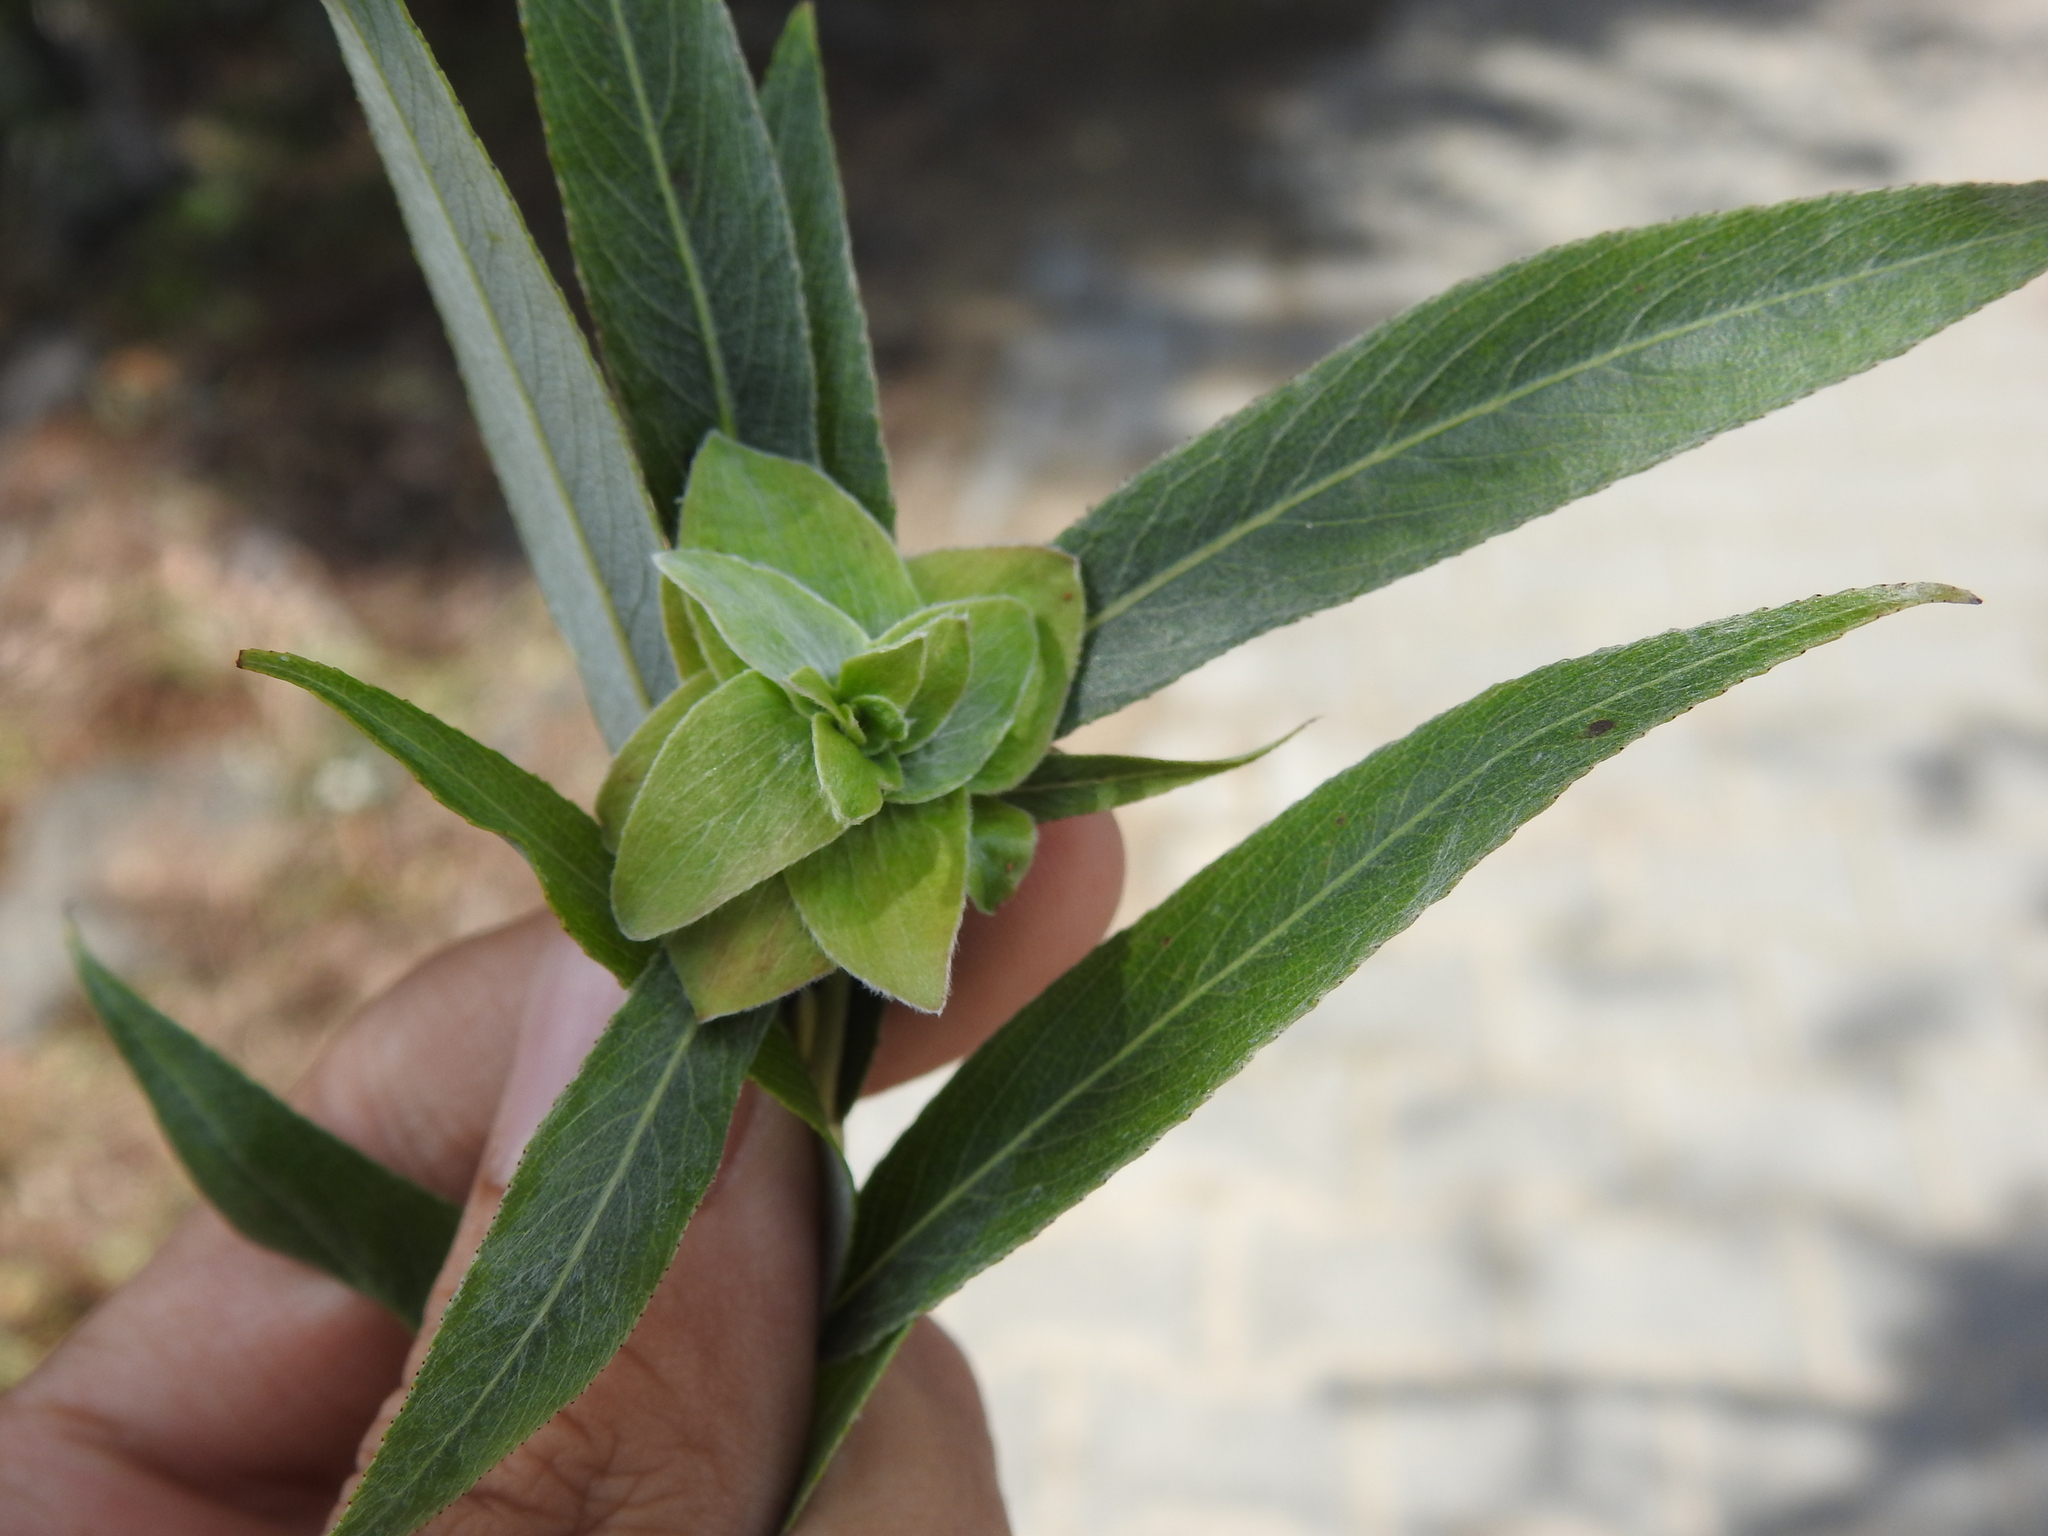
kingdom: Animalia
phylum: Arthropoda
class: Insecta
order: Diptera
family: Cecidomyiidae
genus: Rabdophaga
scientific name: Rabdophaga rosaria
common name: Willow rose gall midge
